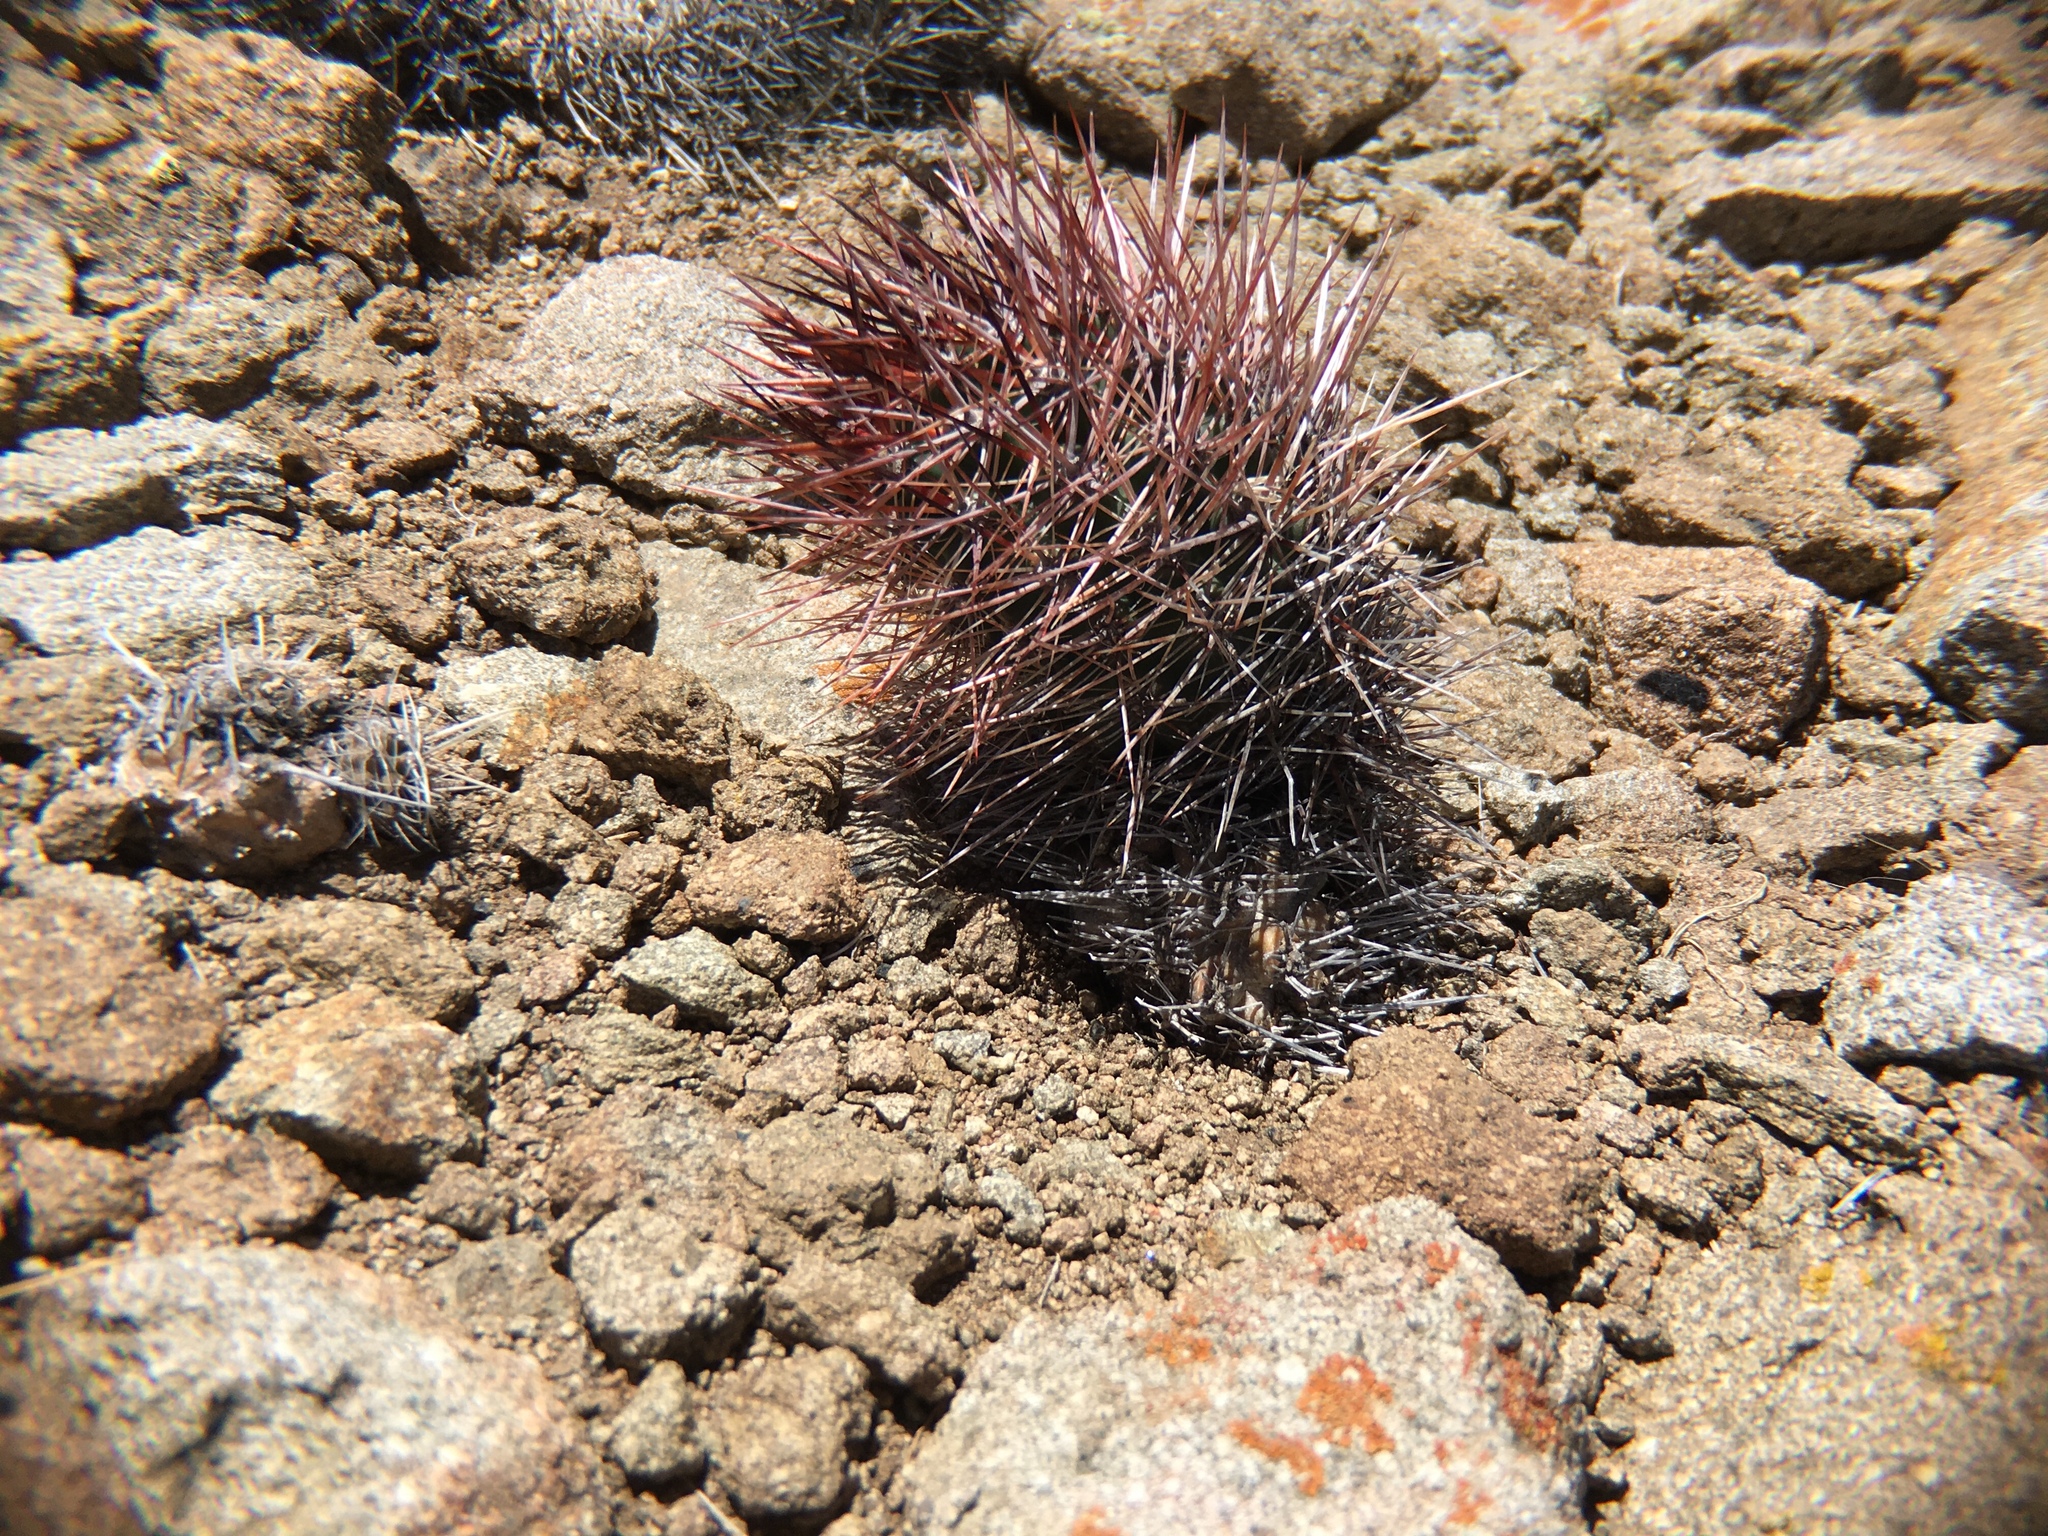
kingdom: Plantae
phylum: Tracheophyta
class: Magnoliopsida
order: Caryophyllales
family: Cactaceae
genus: Austrocactus
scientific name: Austrocactus bertinii
